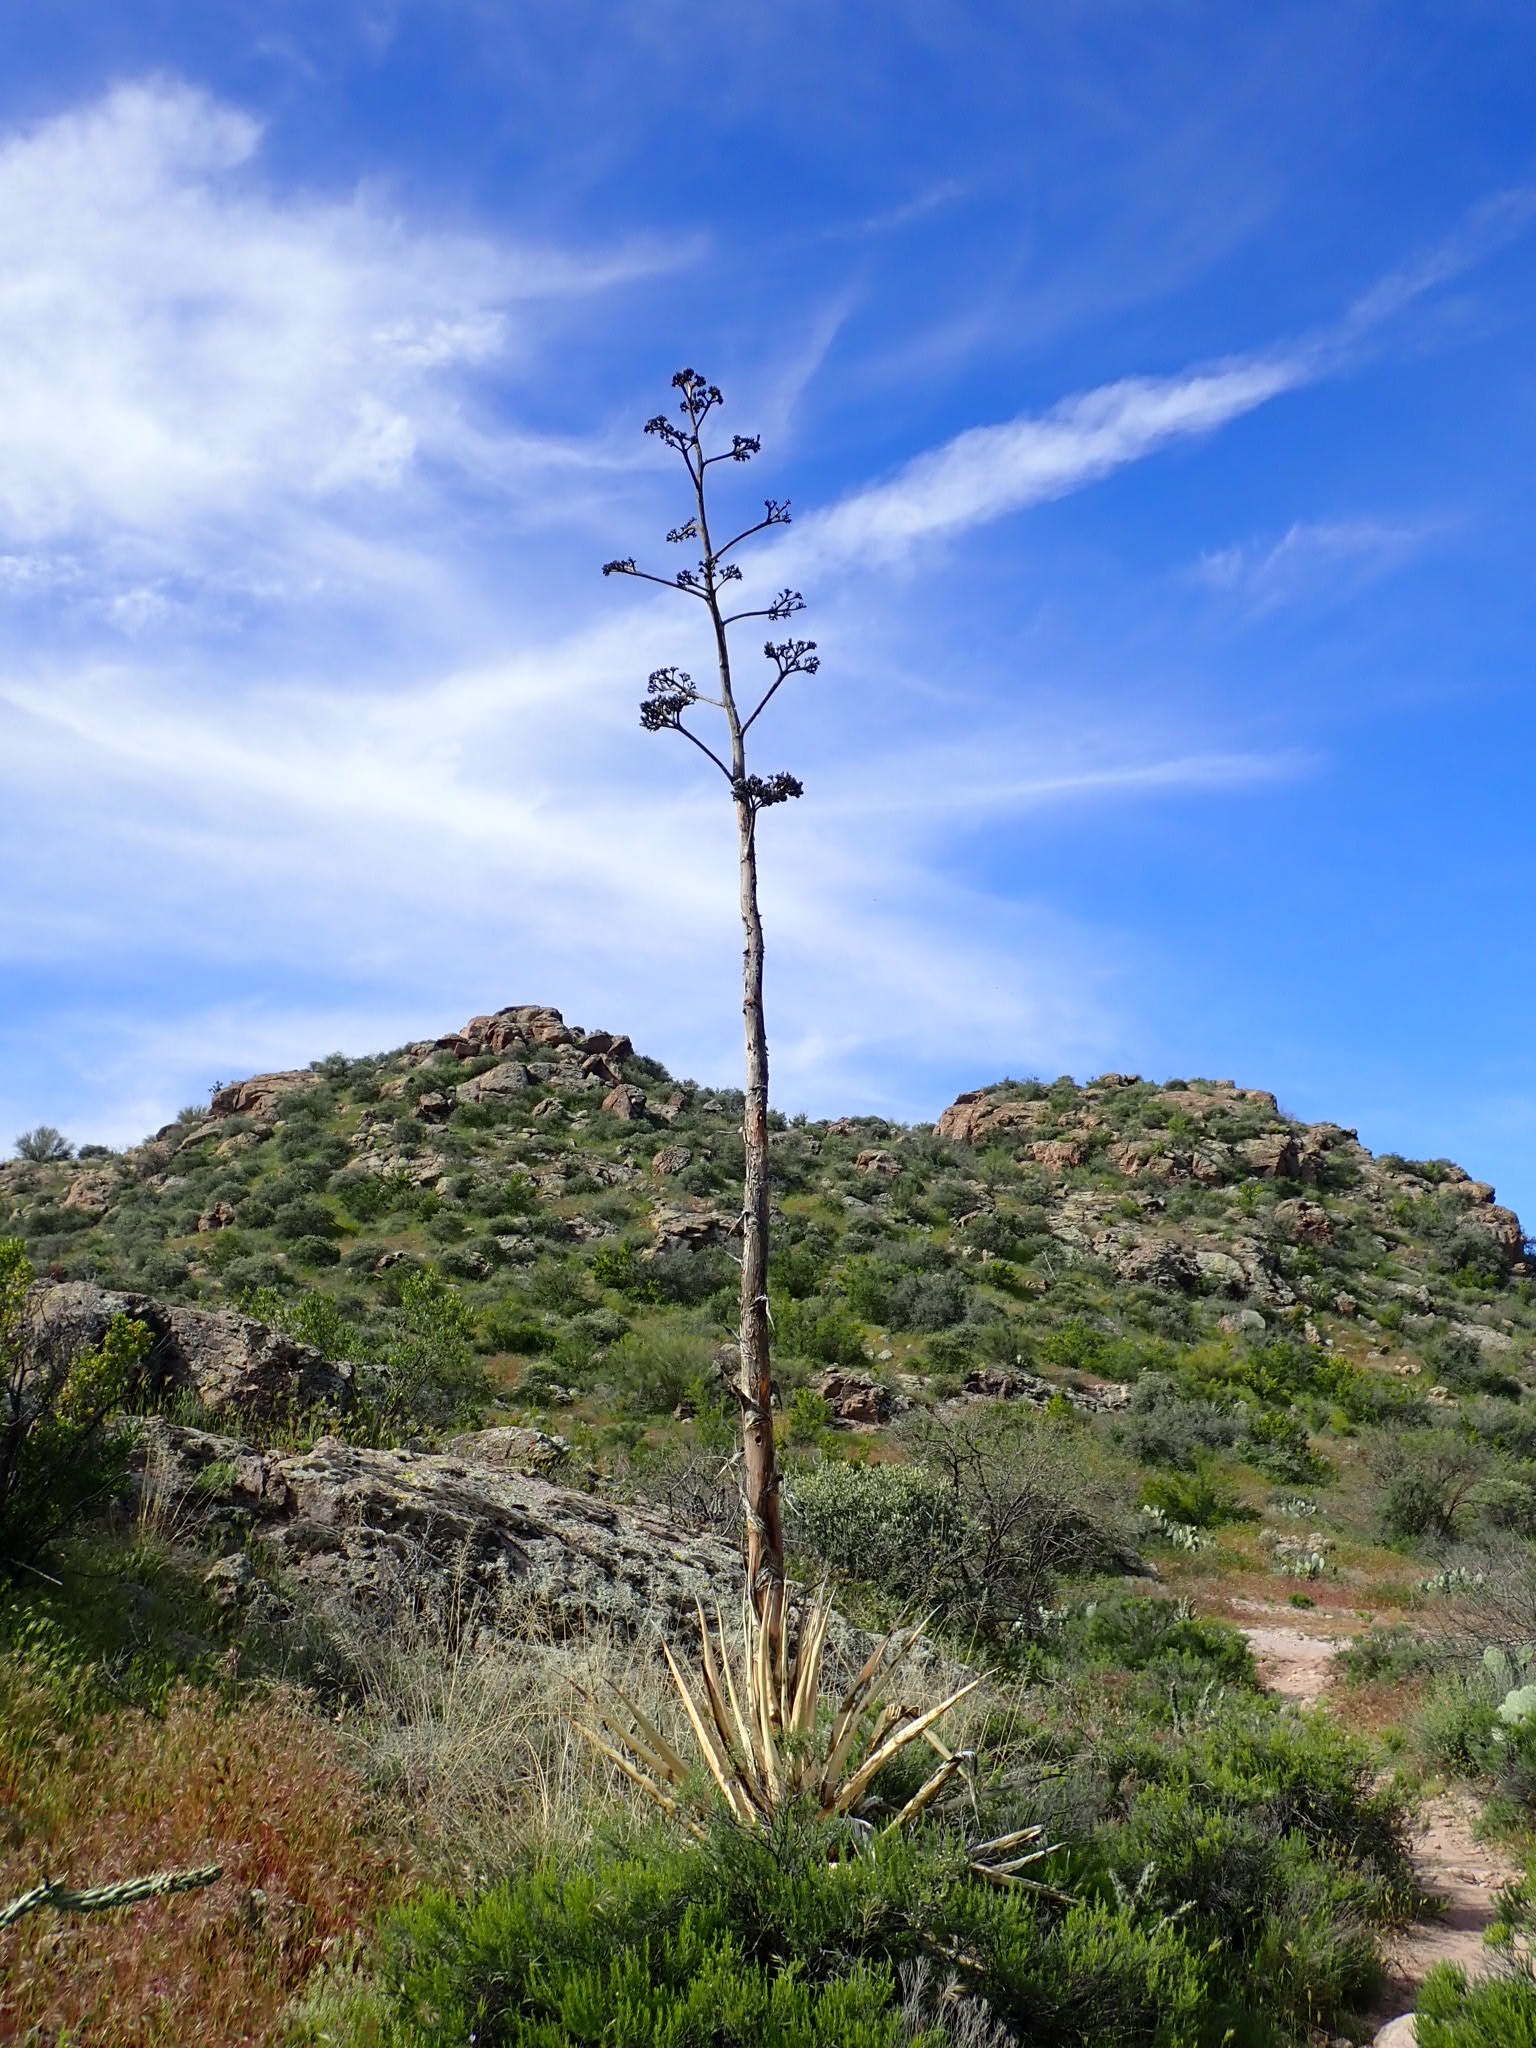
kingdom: Plantae
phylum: Tracheophyta
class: Liliopsida
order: Asparagales
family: Asparagaceae
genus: Agave
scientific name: Agave chrysantha
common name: Golden-flowered agave
